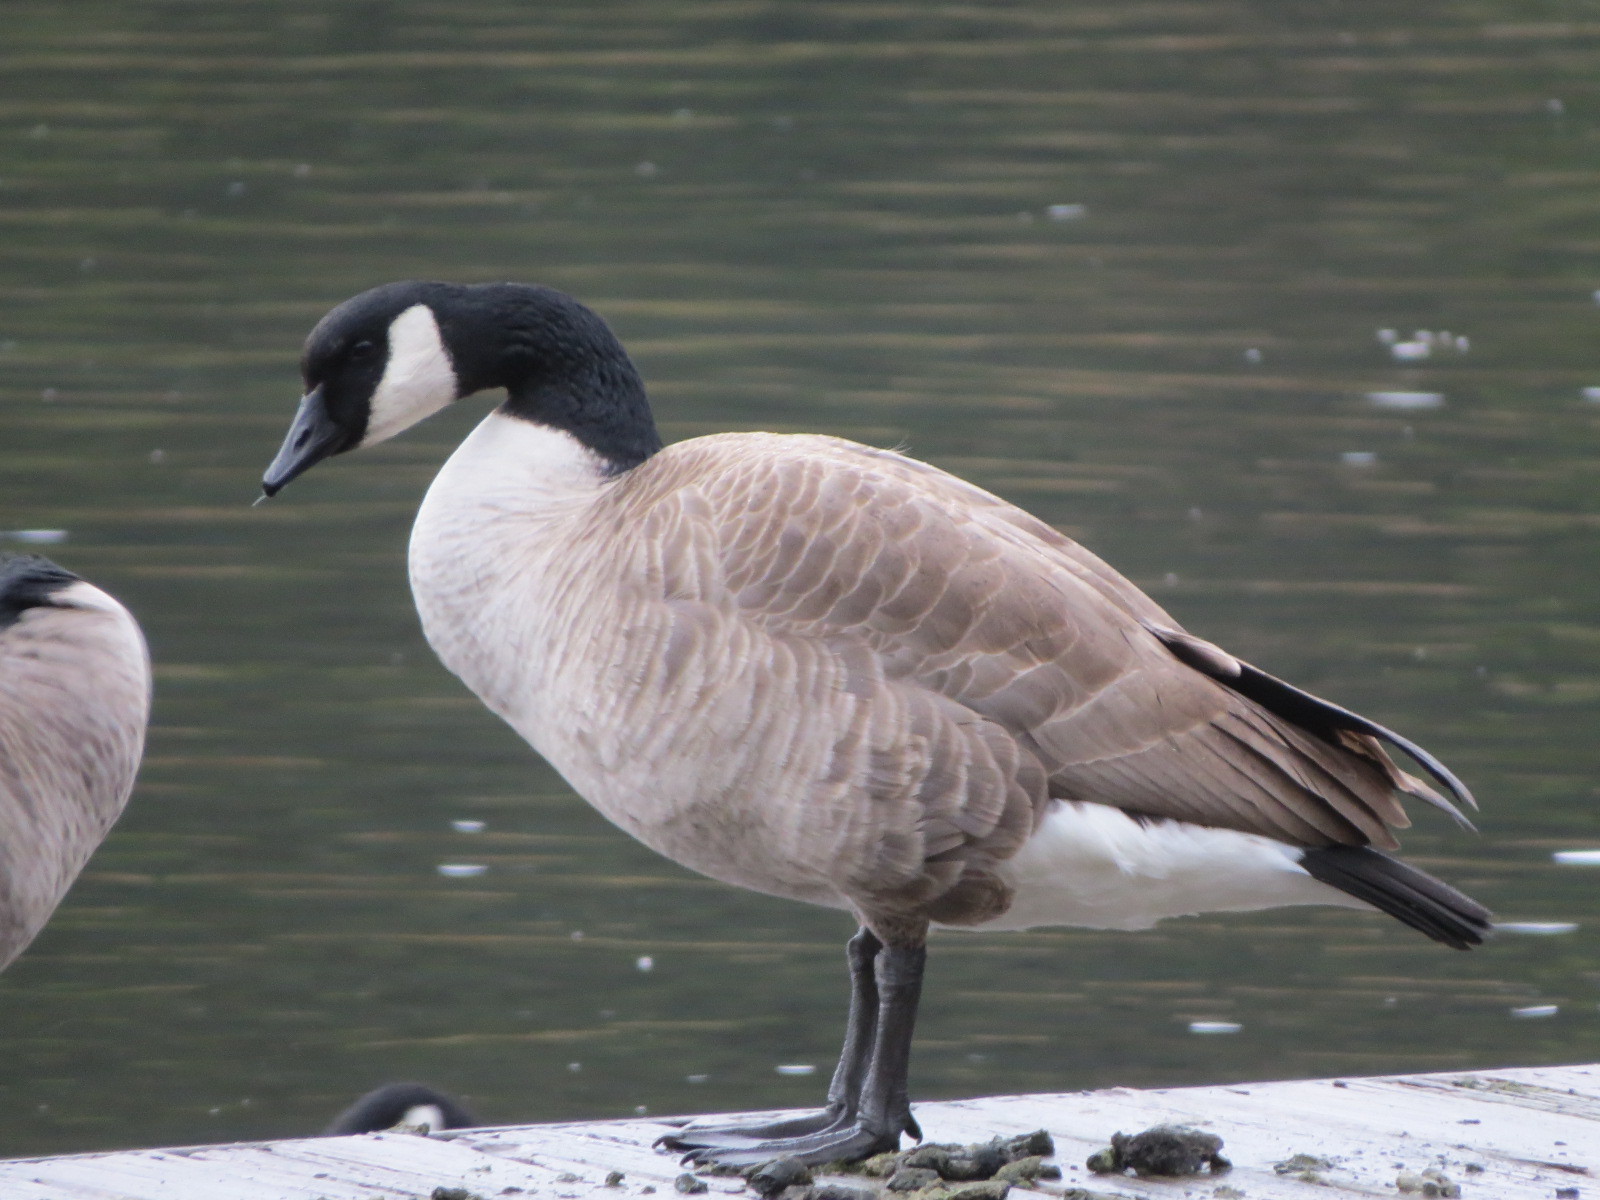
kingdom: Animalia
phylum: Chordata
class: Aves
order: Anseriformes
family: Anatidae
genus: Branta
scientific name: Branta canadensis
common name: Canada goose
